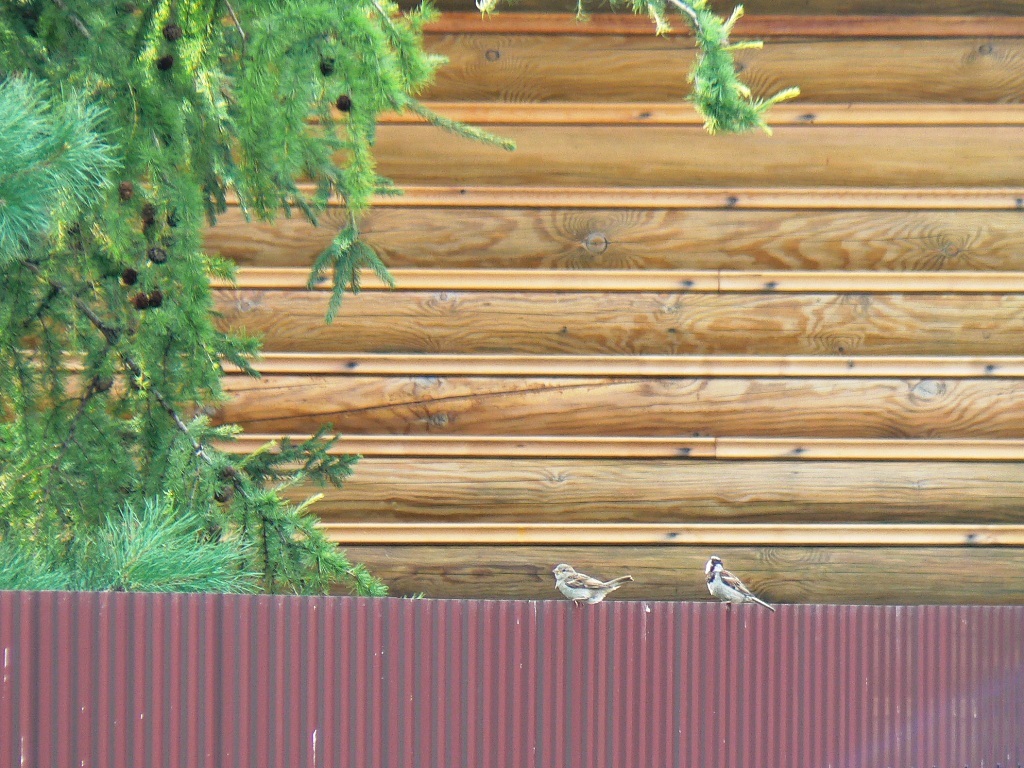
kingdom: Animalia
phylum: Chordata
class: Aves
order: Passeriformes
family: Passeridae
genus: Passer
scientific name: Passer domesticus
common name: House sparrow
